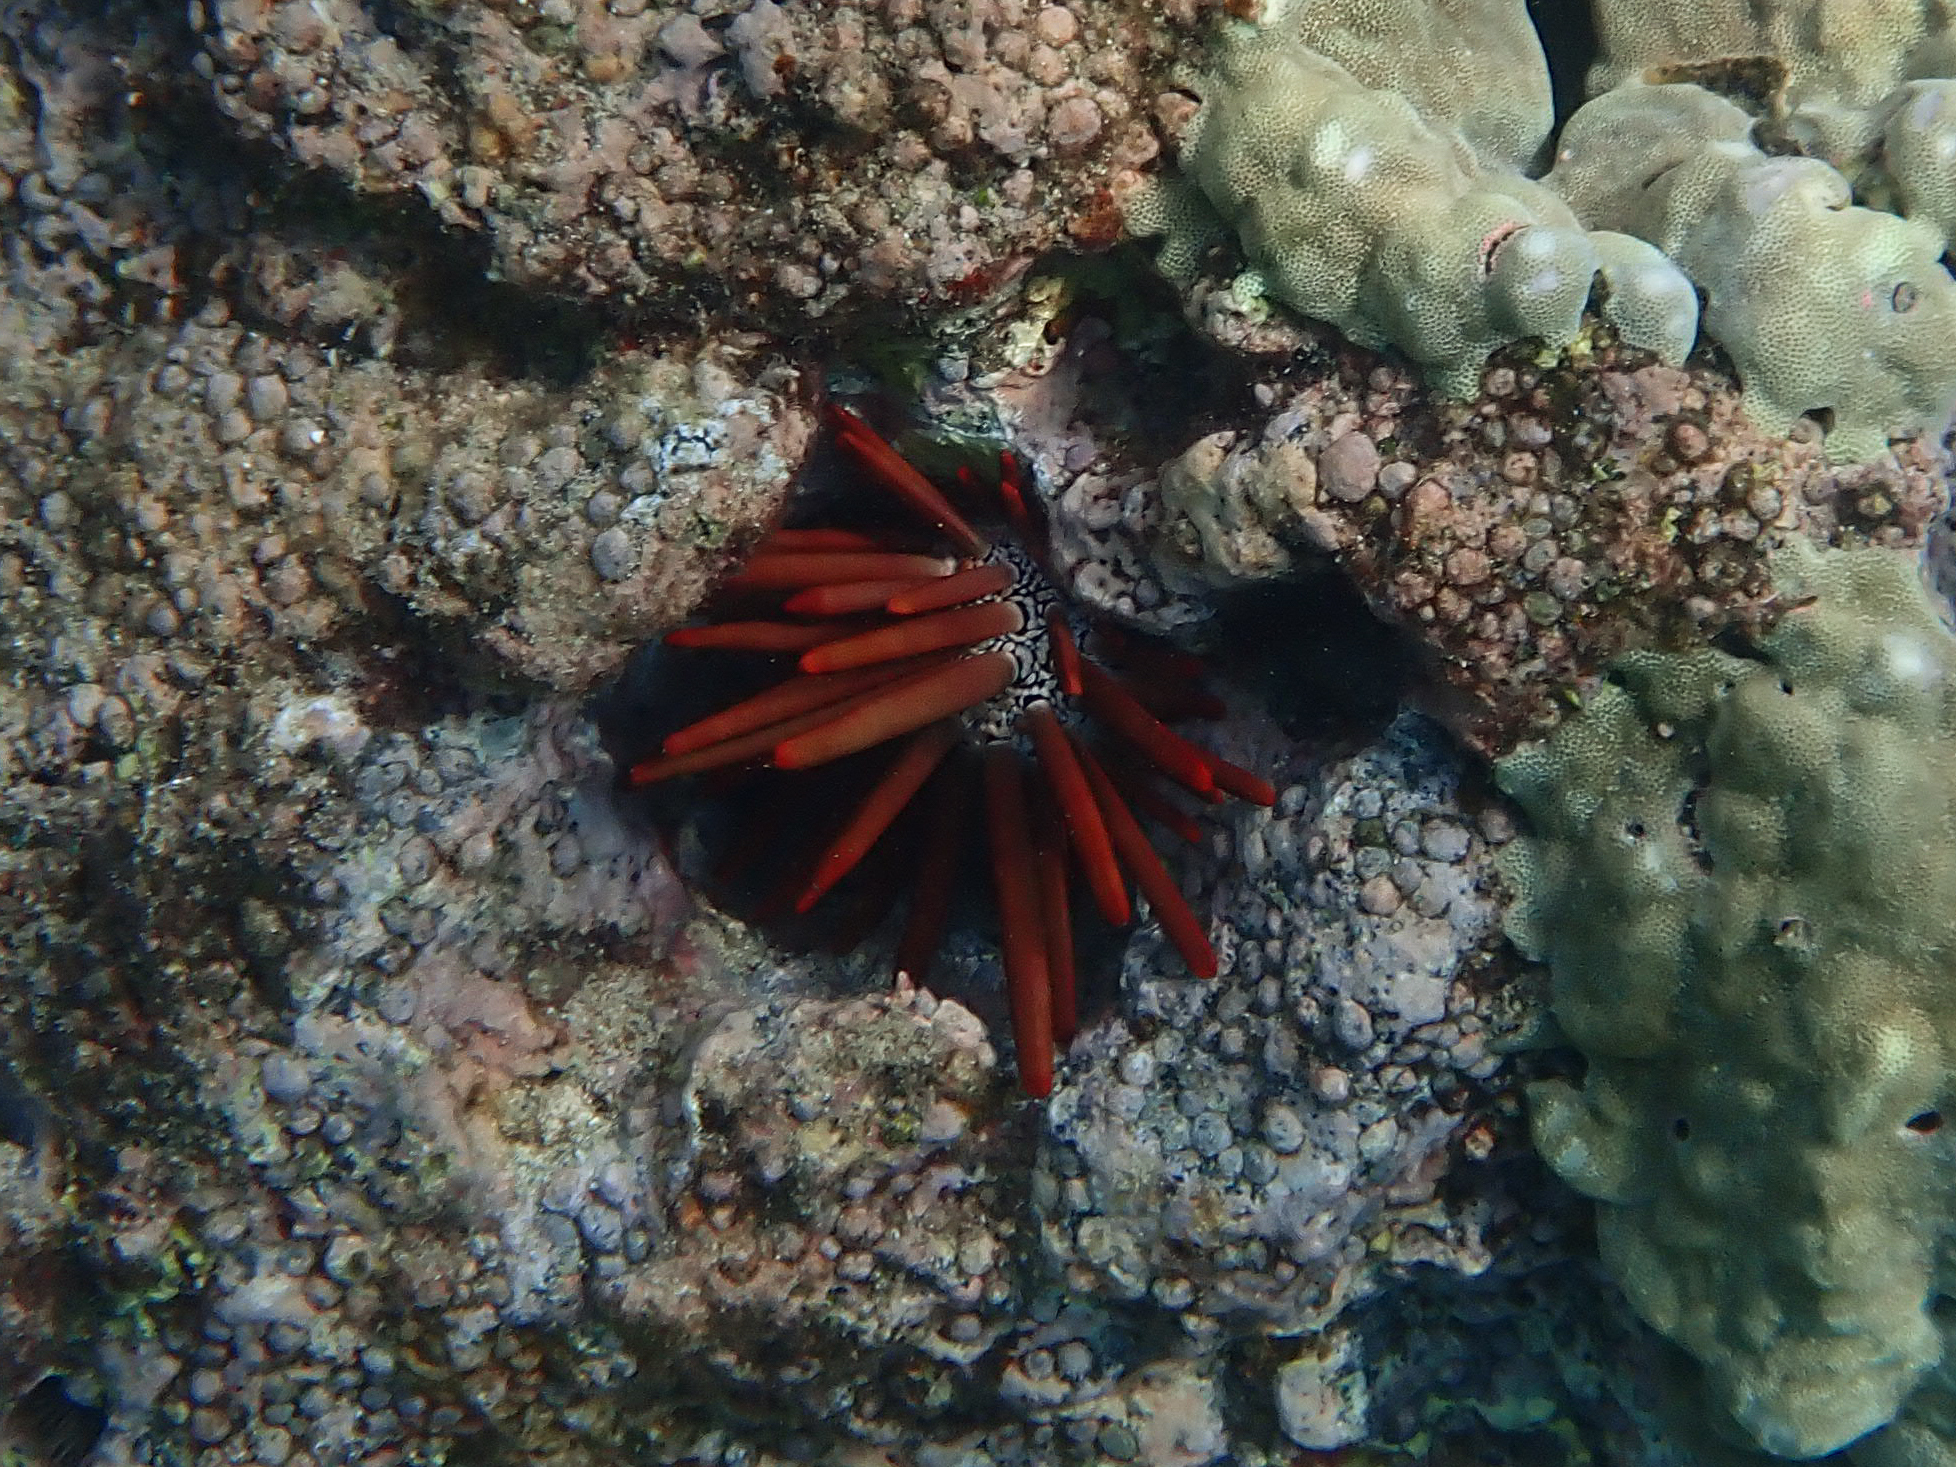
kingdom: Animalia
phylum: Echinodermata
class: Echinoidea
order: Camarodonta
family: Echinometridae
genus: Heterocentrotus
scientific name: Heterocentrotus mamillatus
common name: Slate pencil urchin
